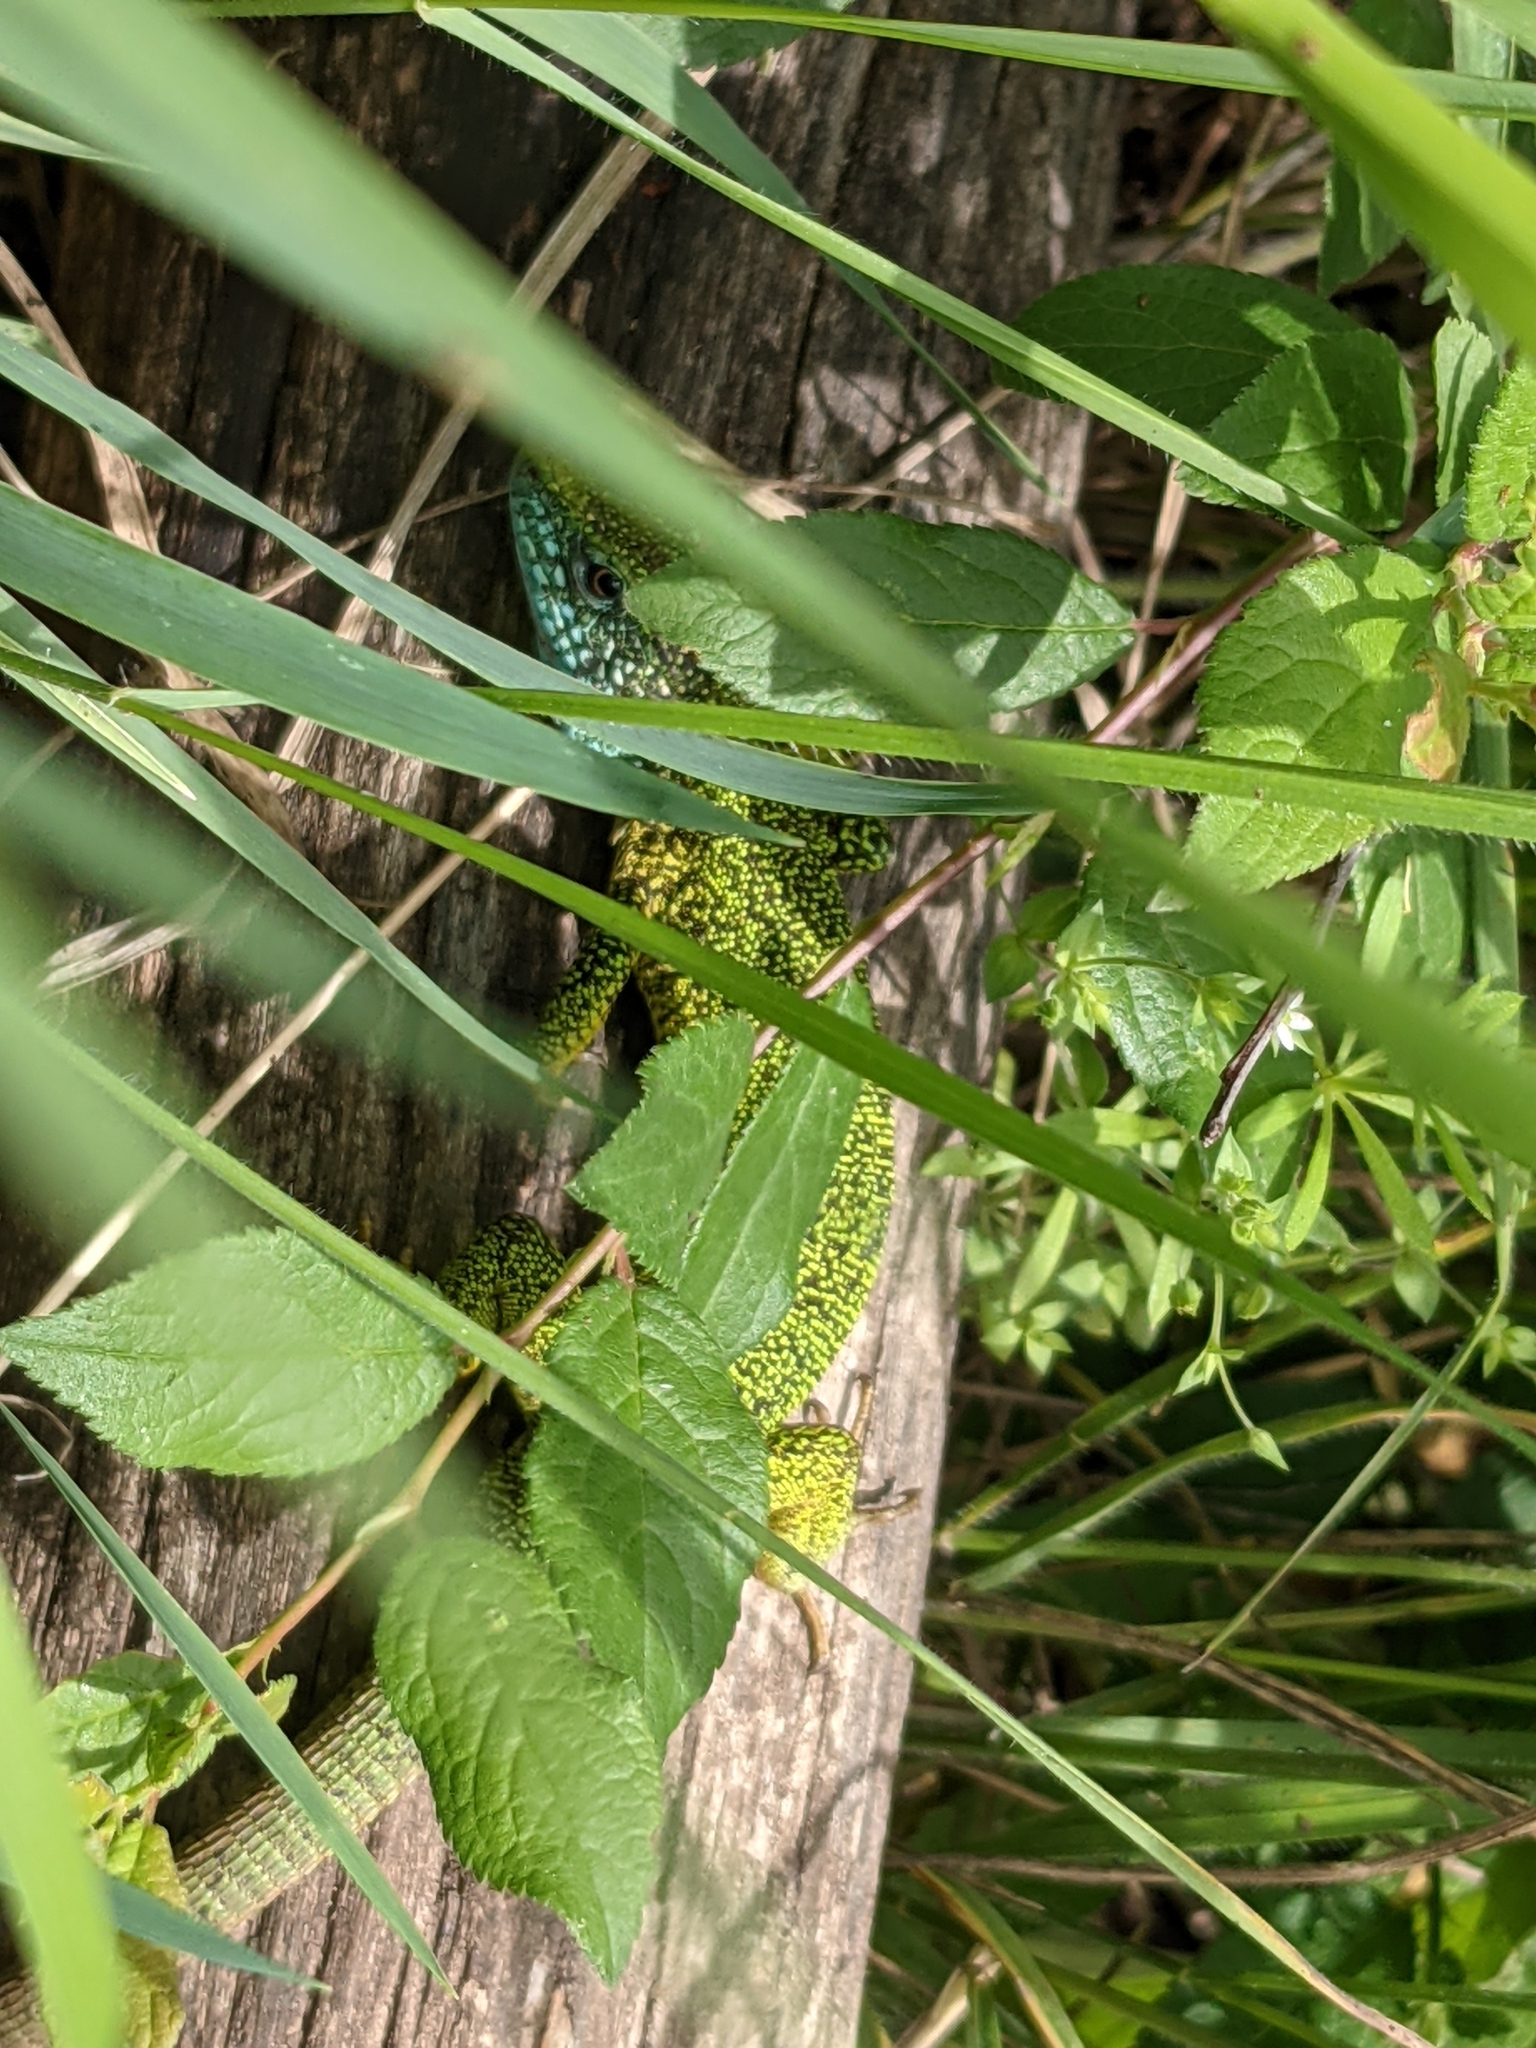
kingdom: Animalia
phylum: Chordata
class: Squamata
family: Lacertidae
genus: Lacerta
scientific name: Lacerta viridis
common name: European green lizard
